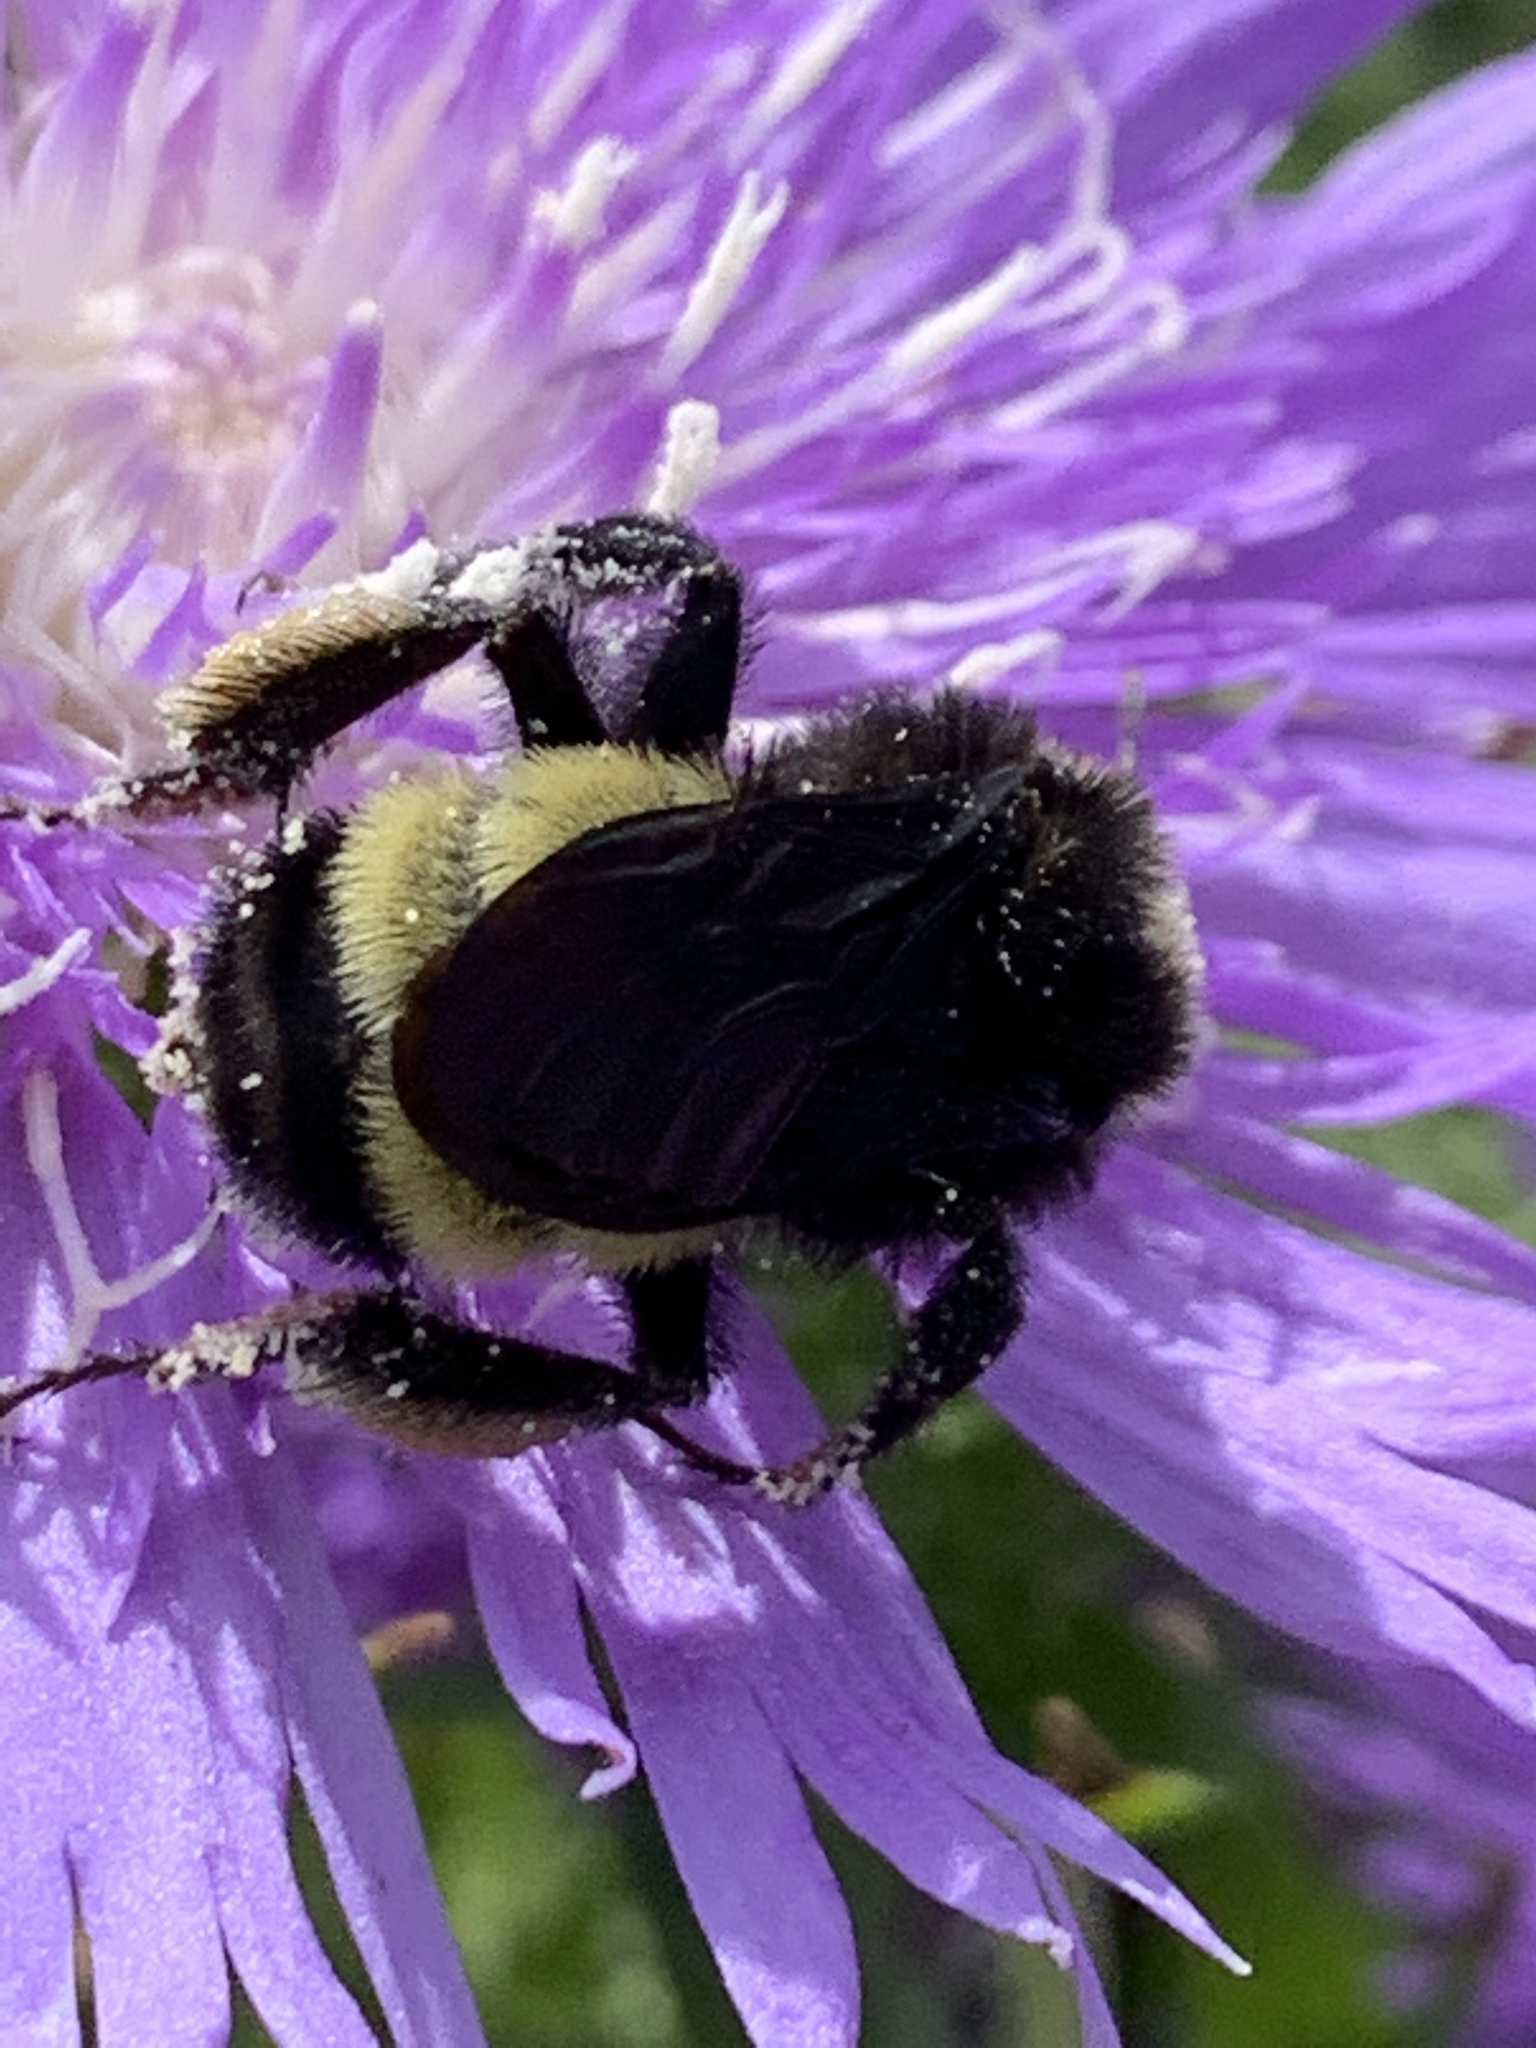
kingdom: Animalia
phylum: Arthropoda
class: Insecta
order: Hymenoptera
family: Apidae
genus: Bombus
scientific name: Bombus pensylvanicus
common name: Bumble bee
